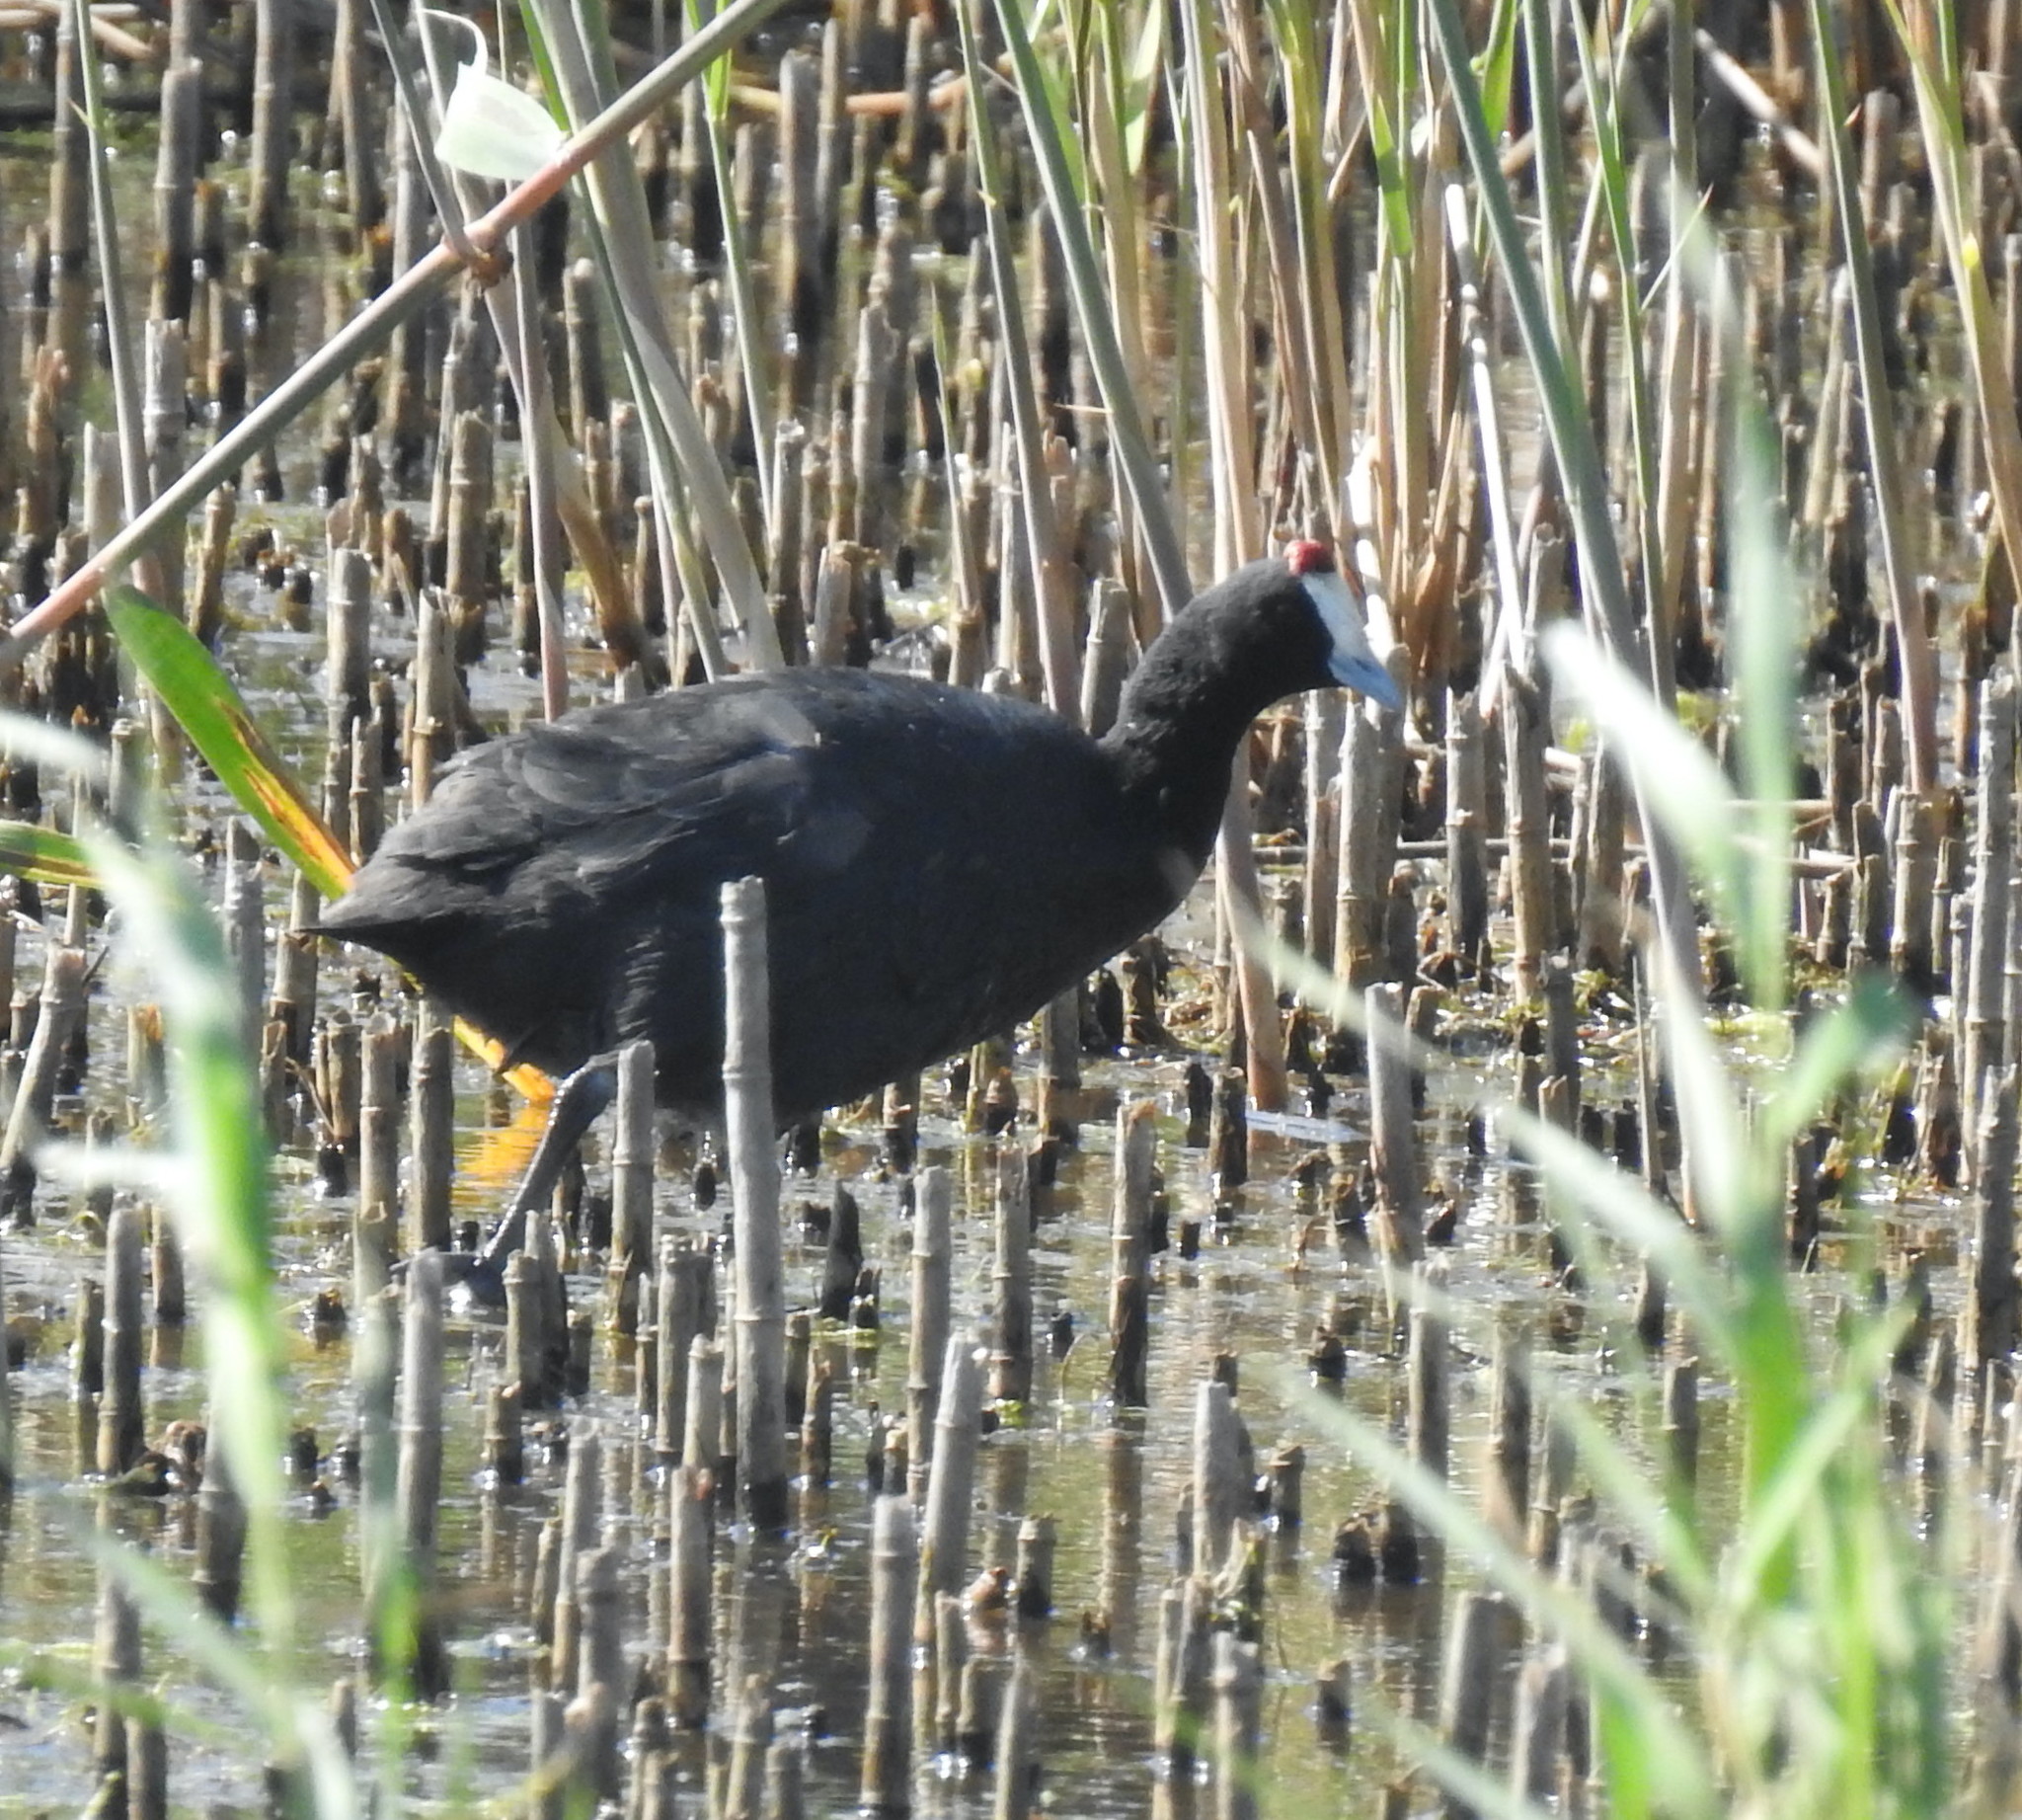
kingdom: Animalia
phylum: Chordata
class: Aves
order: Gruiformes
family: Rallidae
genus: Fulica
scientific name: Fulica cristata
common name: Red-knobbed coot
